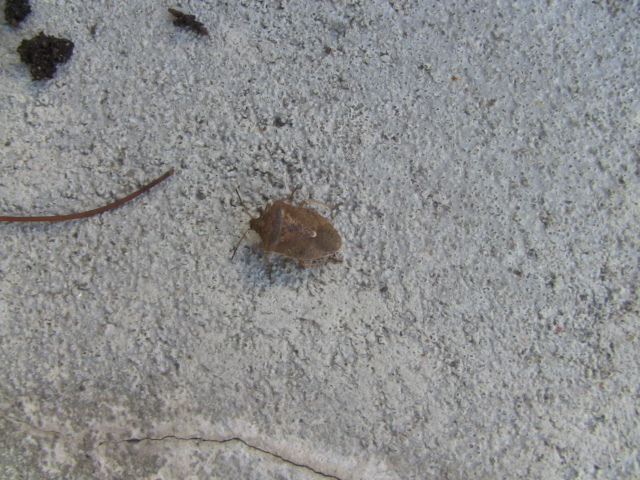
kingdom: Animalia
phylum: Arthropoda
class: Insecta
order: Hemiptera
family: Pentatomidae
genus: Euschistus
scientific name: Euschistus servus
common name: Brown stink bug
